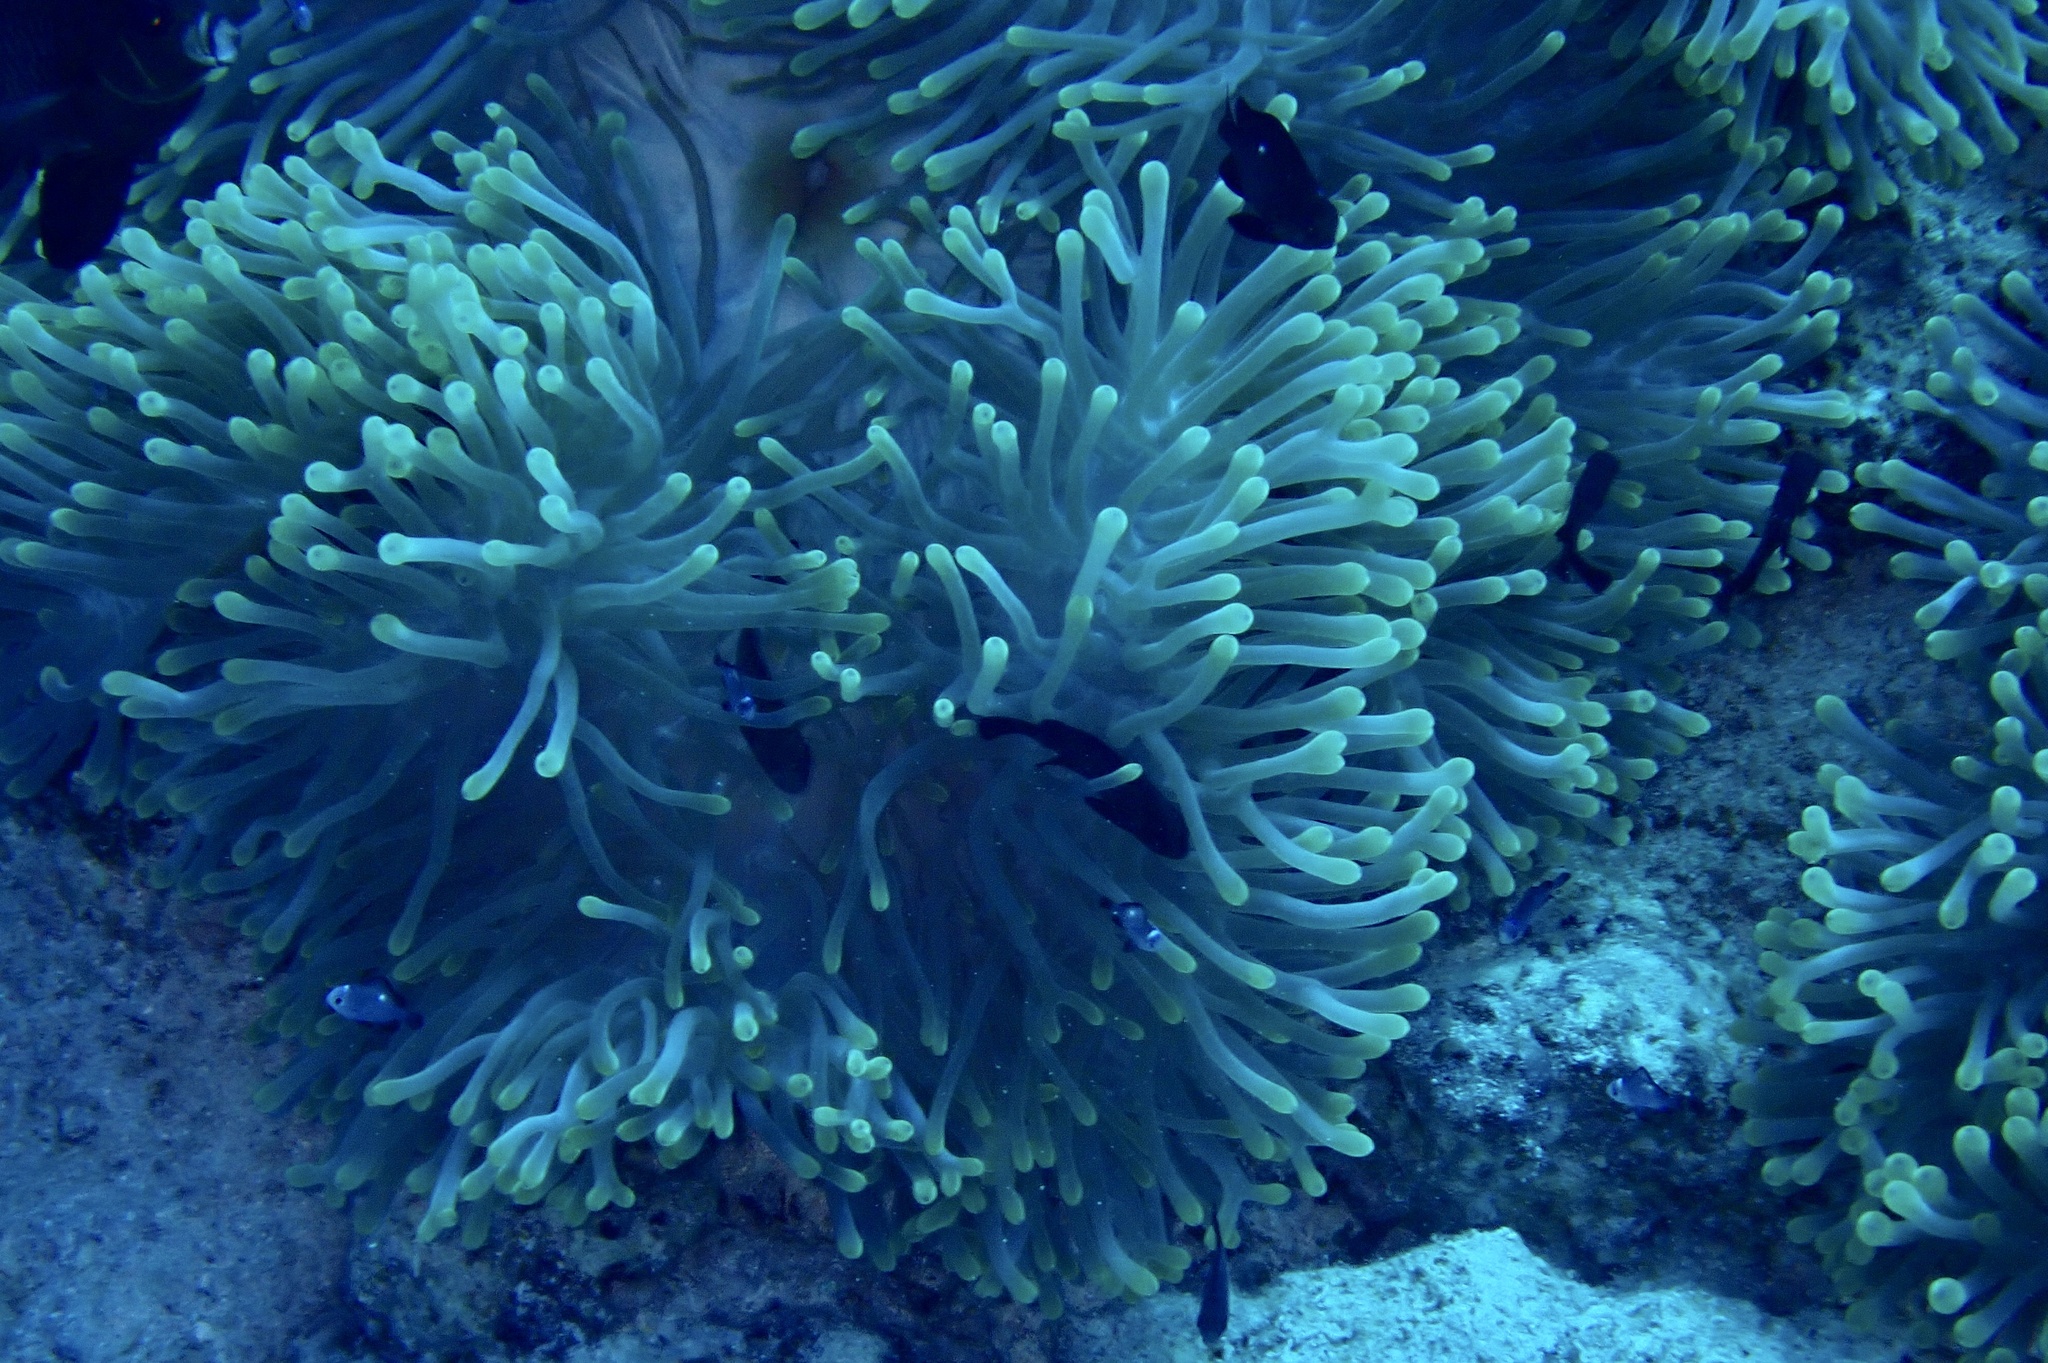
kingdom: Animalia
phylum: Cnidaria
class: Anthozoa
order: Actiniaria
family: Stichodactylidae
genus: Radianthus
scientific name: Radianthus magnifica
